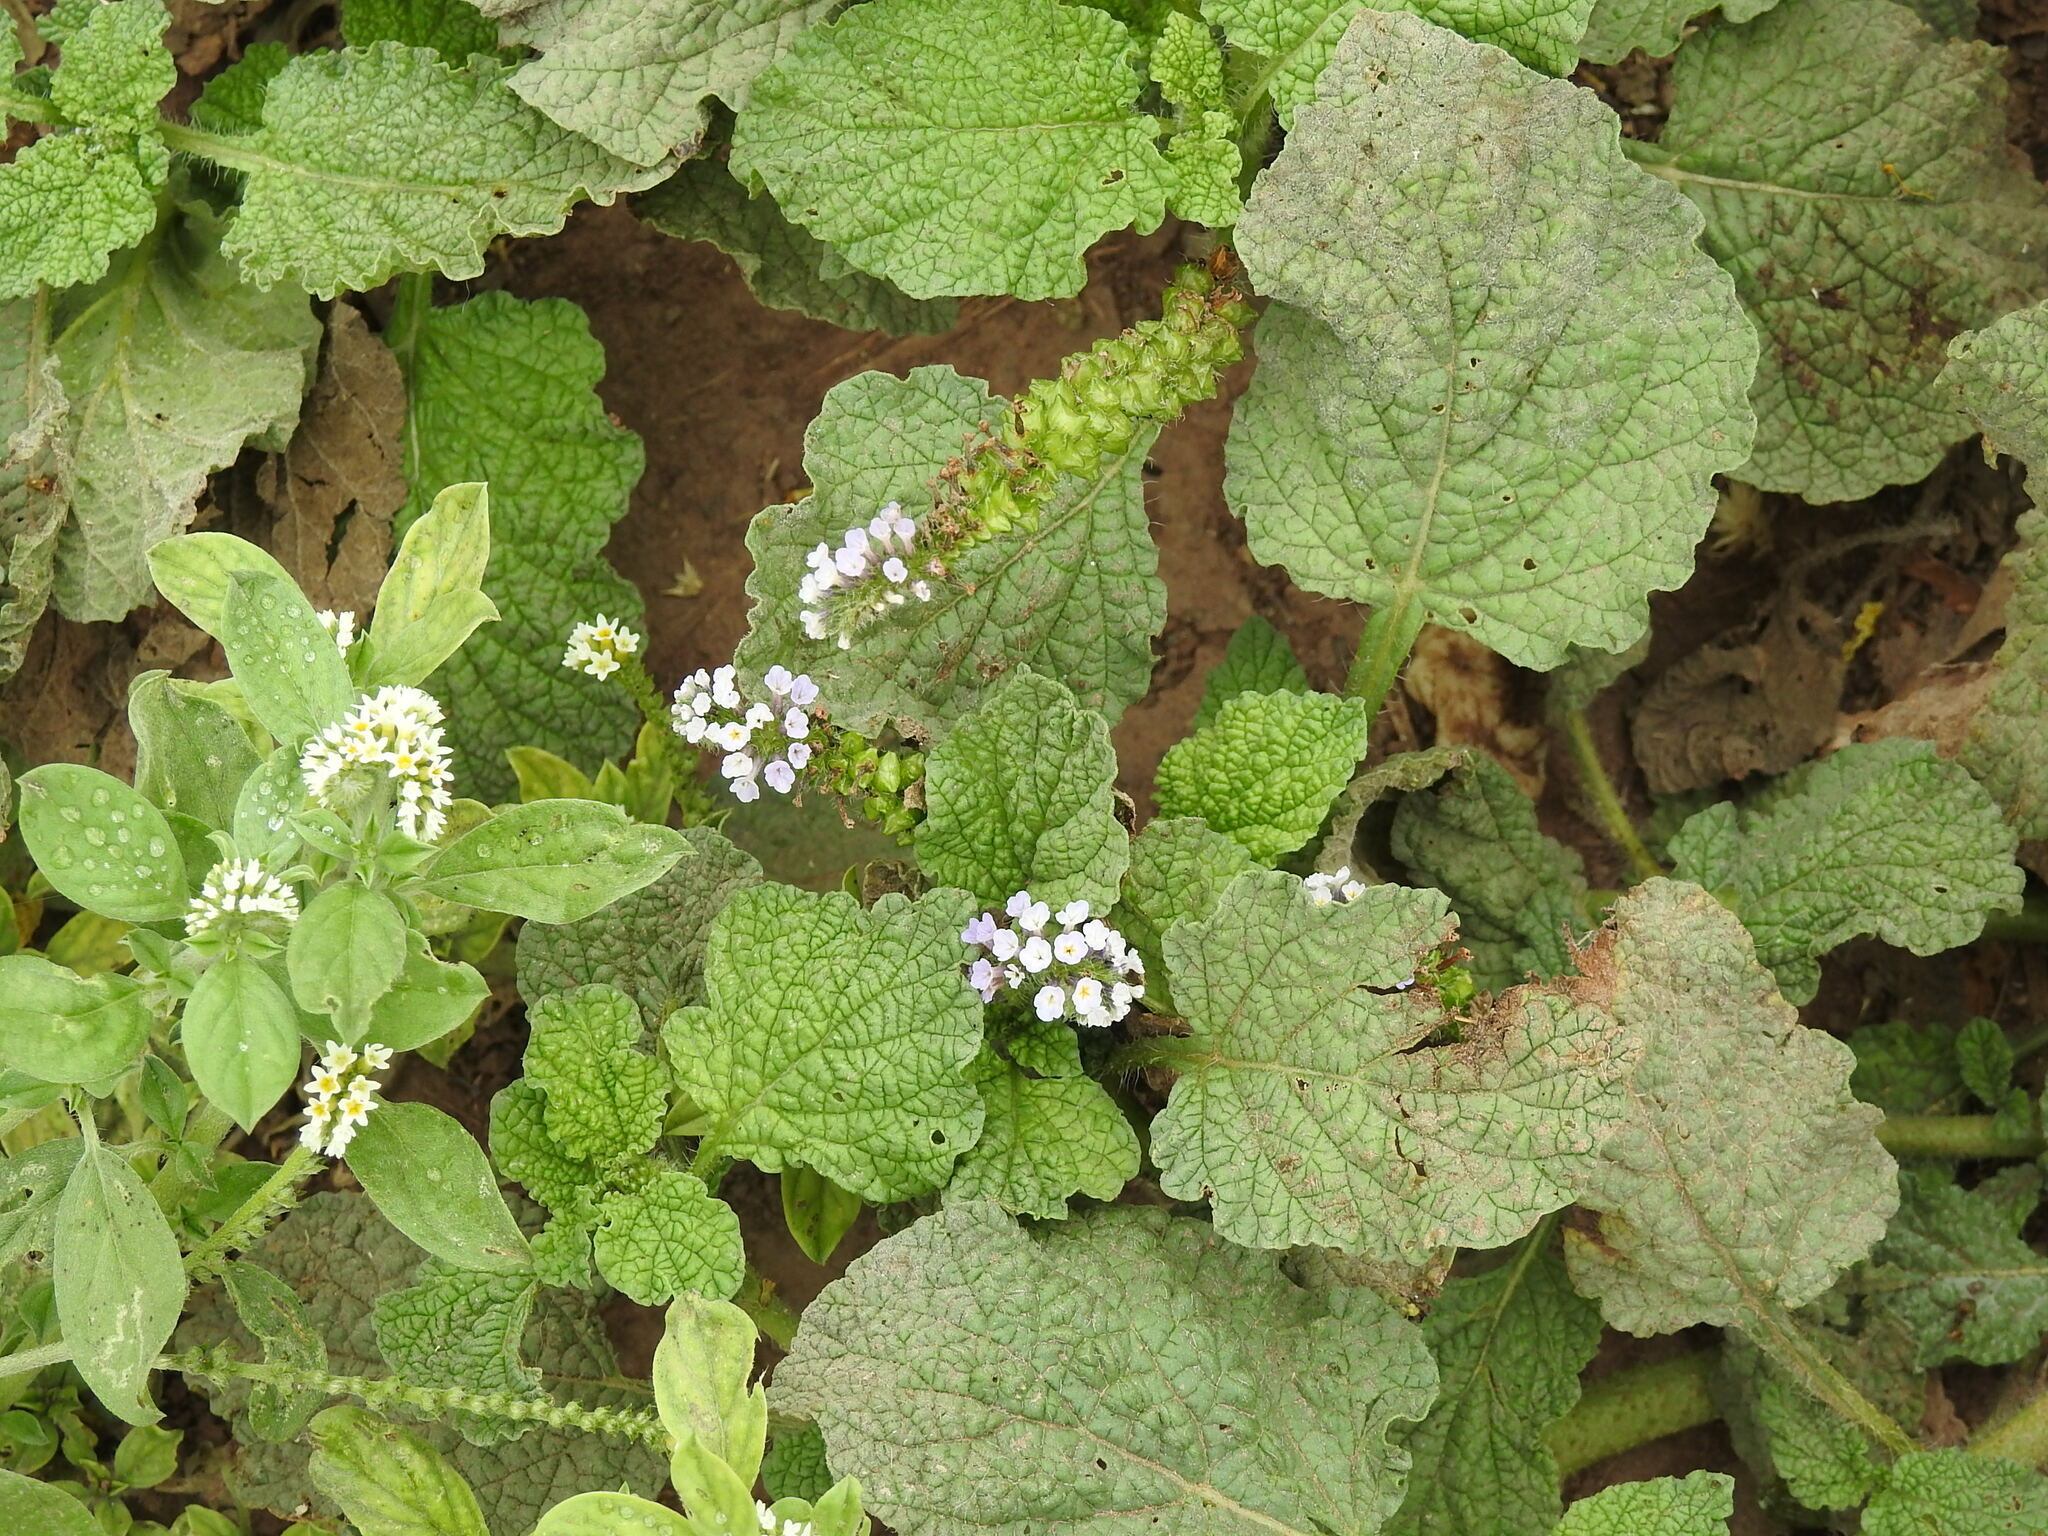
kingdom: Plantae
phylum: Tracheophyta
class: Magnoliopsida
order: Boraginales
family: Heliotropiaceae
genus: Heliotropium
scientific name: Heliotropium elongatum
